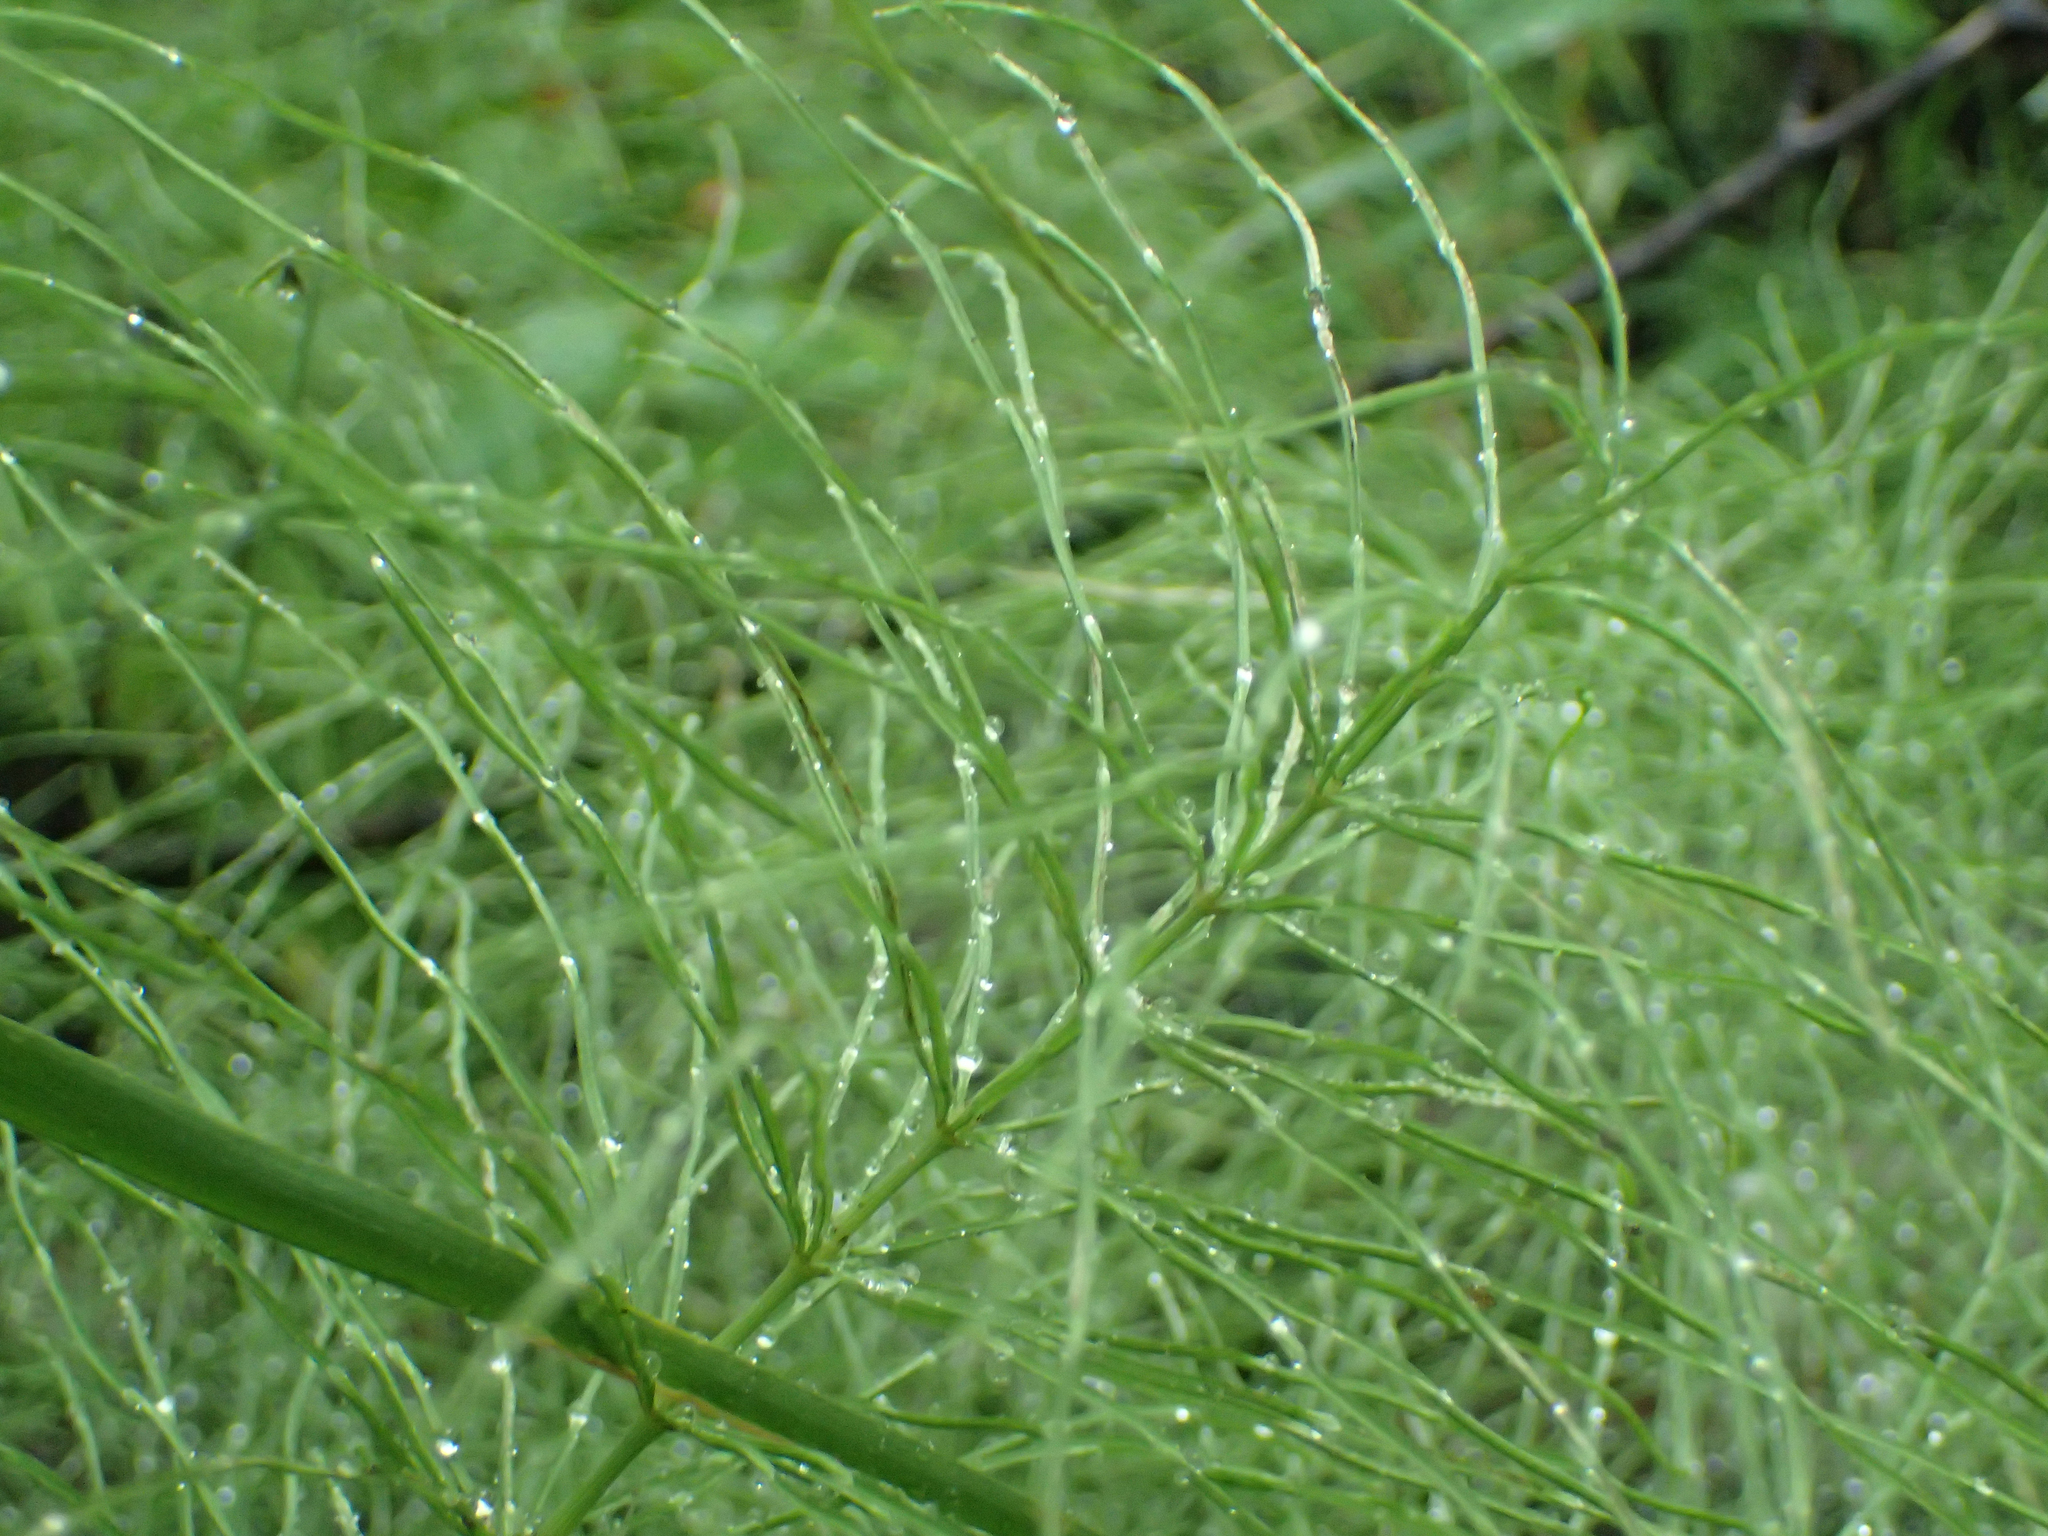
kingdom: Plantae
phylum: Tracheophyta
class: Polypodiopsida
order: Equisetales
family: Equisetaceae
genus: Equisetum
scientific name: Equisetum arvense
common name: Field horsetail
